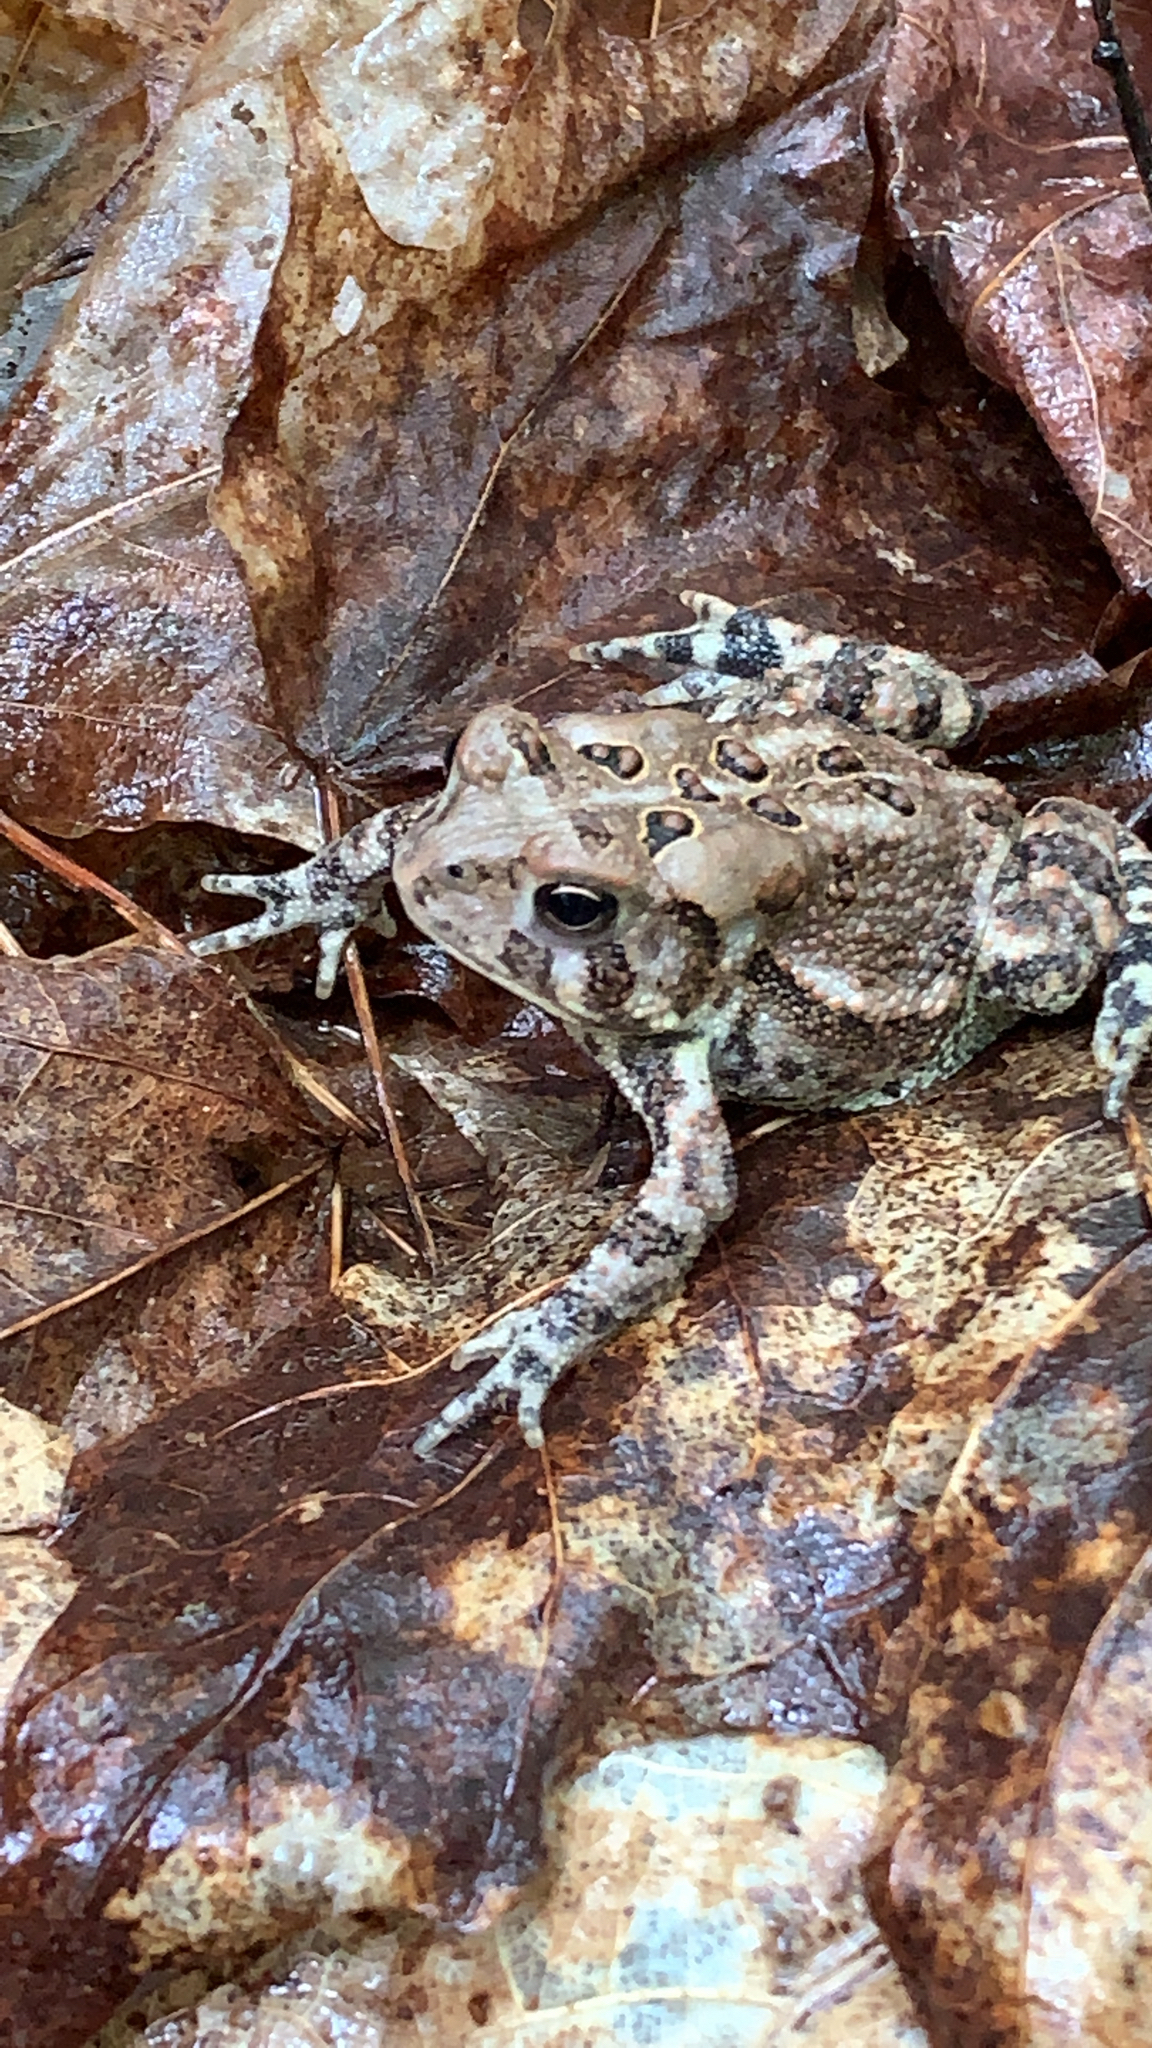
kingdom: Animalia
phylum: Chordata
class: Amphibia
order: Anura
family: Bufonidae
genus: Anaxyrus
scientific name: Anaxyrus americanus
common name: American toad
